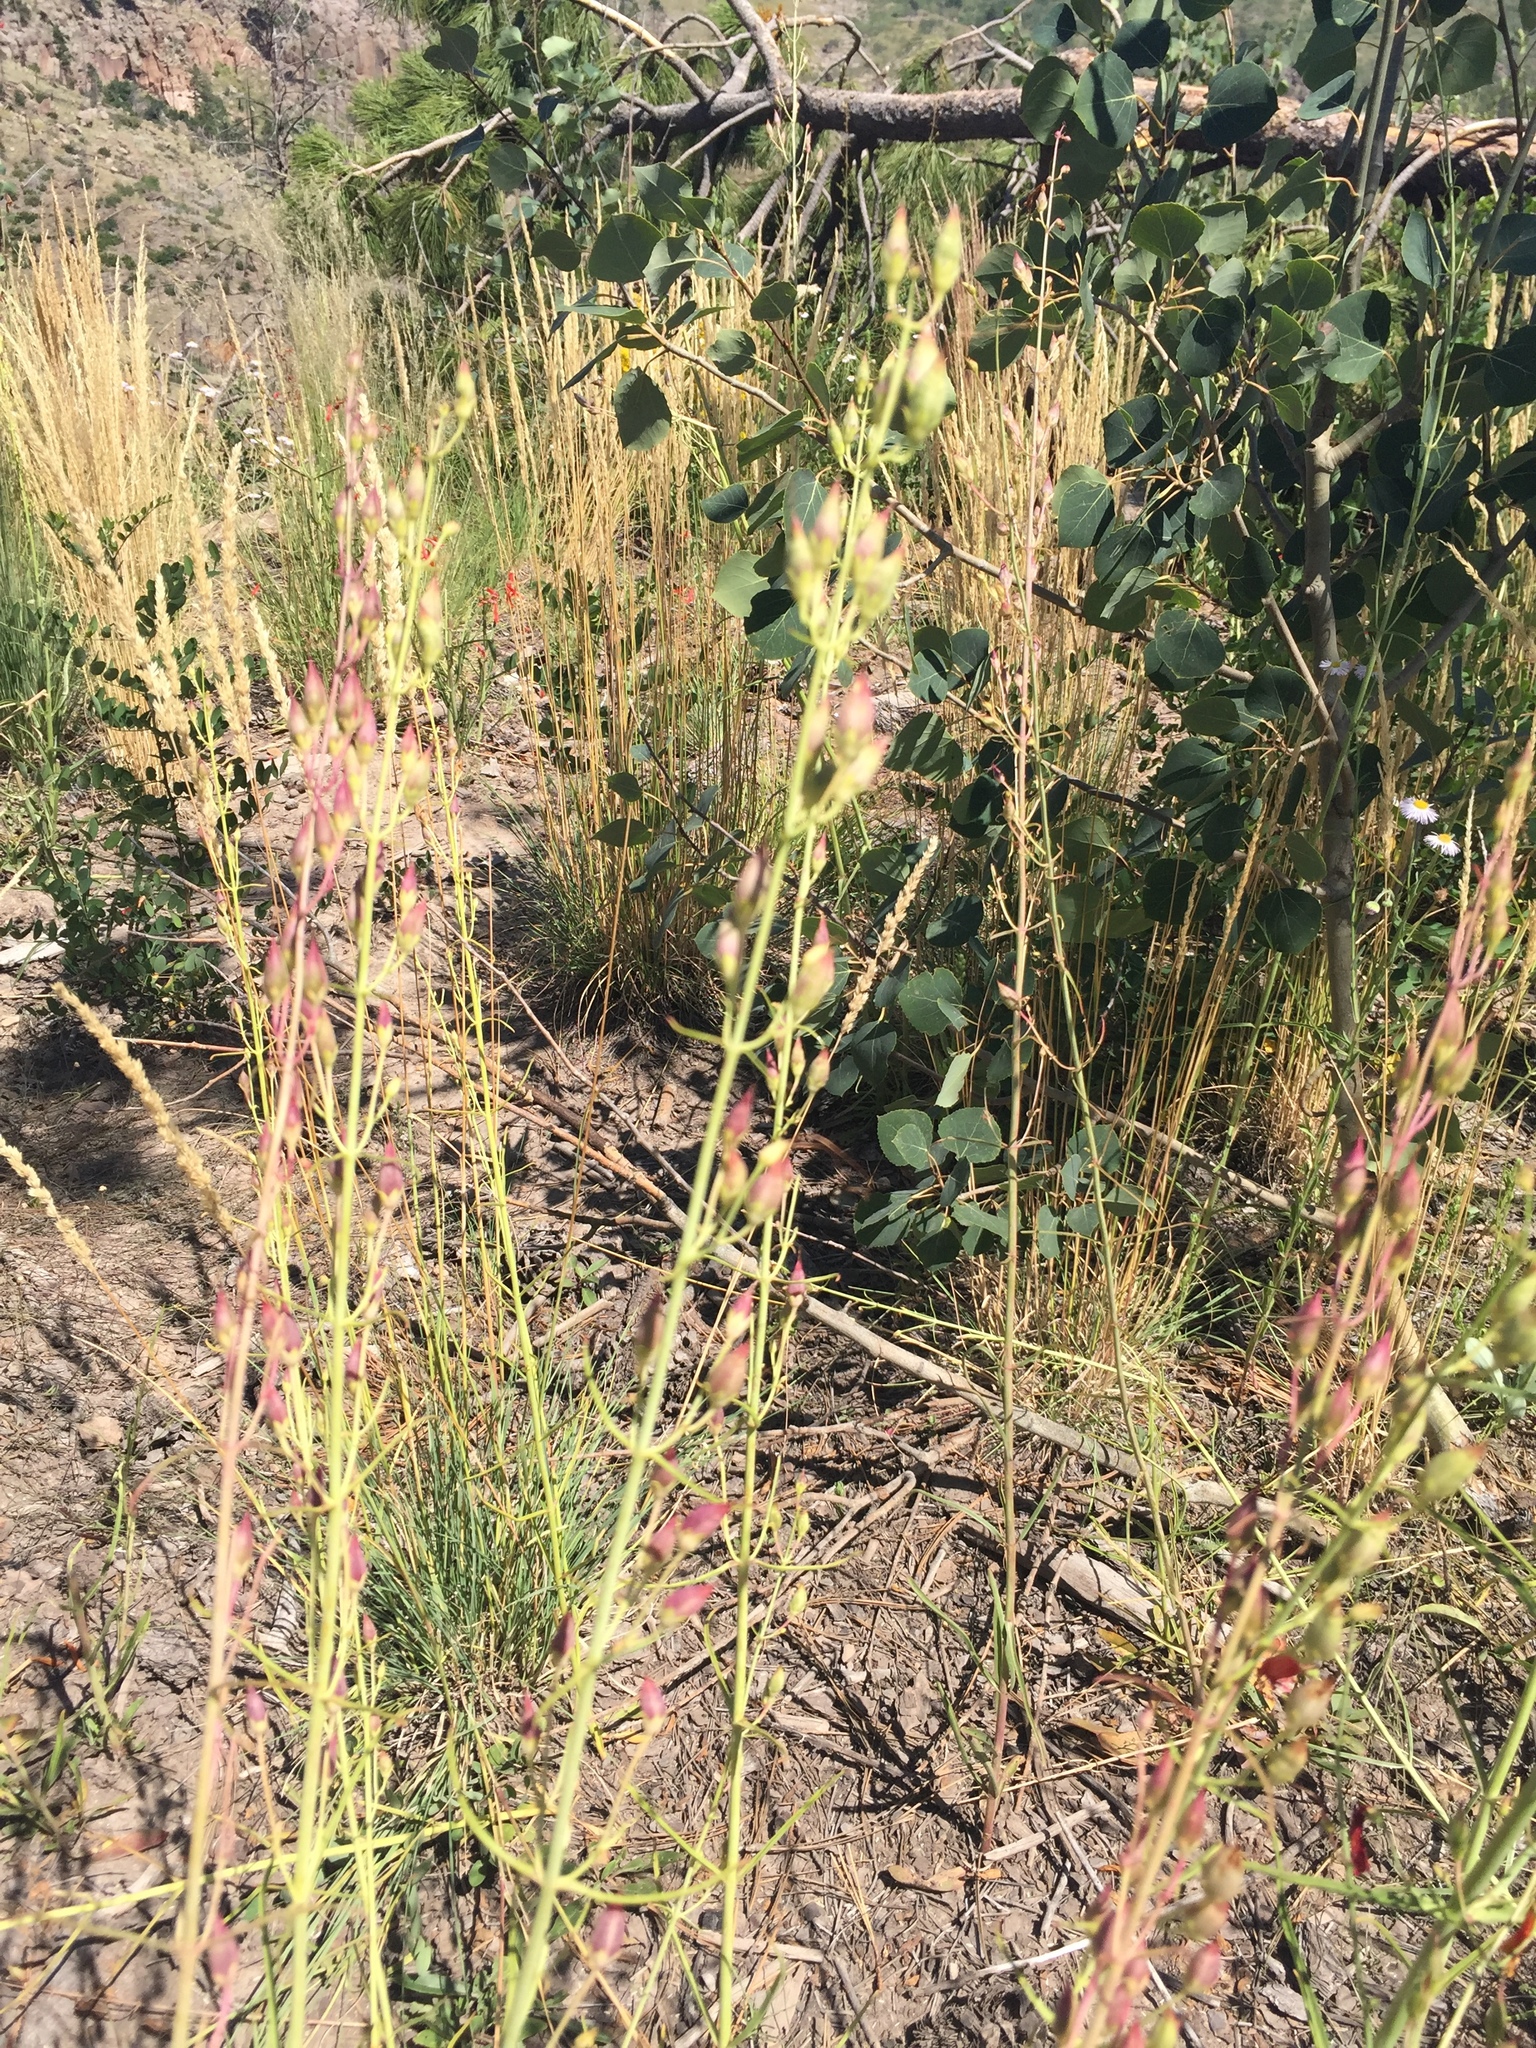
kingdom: Plantae
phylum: Tracheophyta
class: Magnoliopsida
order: Lamiales
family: Plantaginaceae
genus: Penstemon
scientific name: Penstemon barbatus
